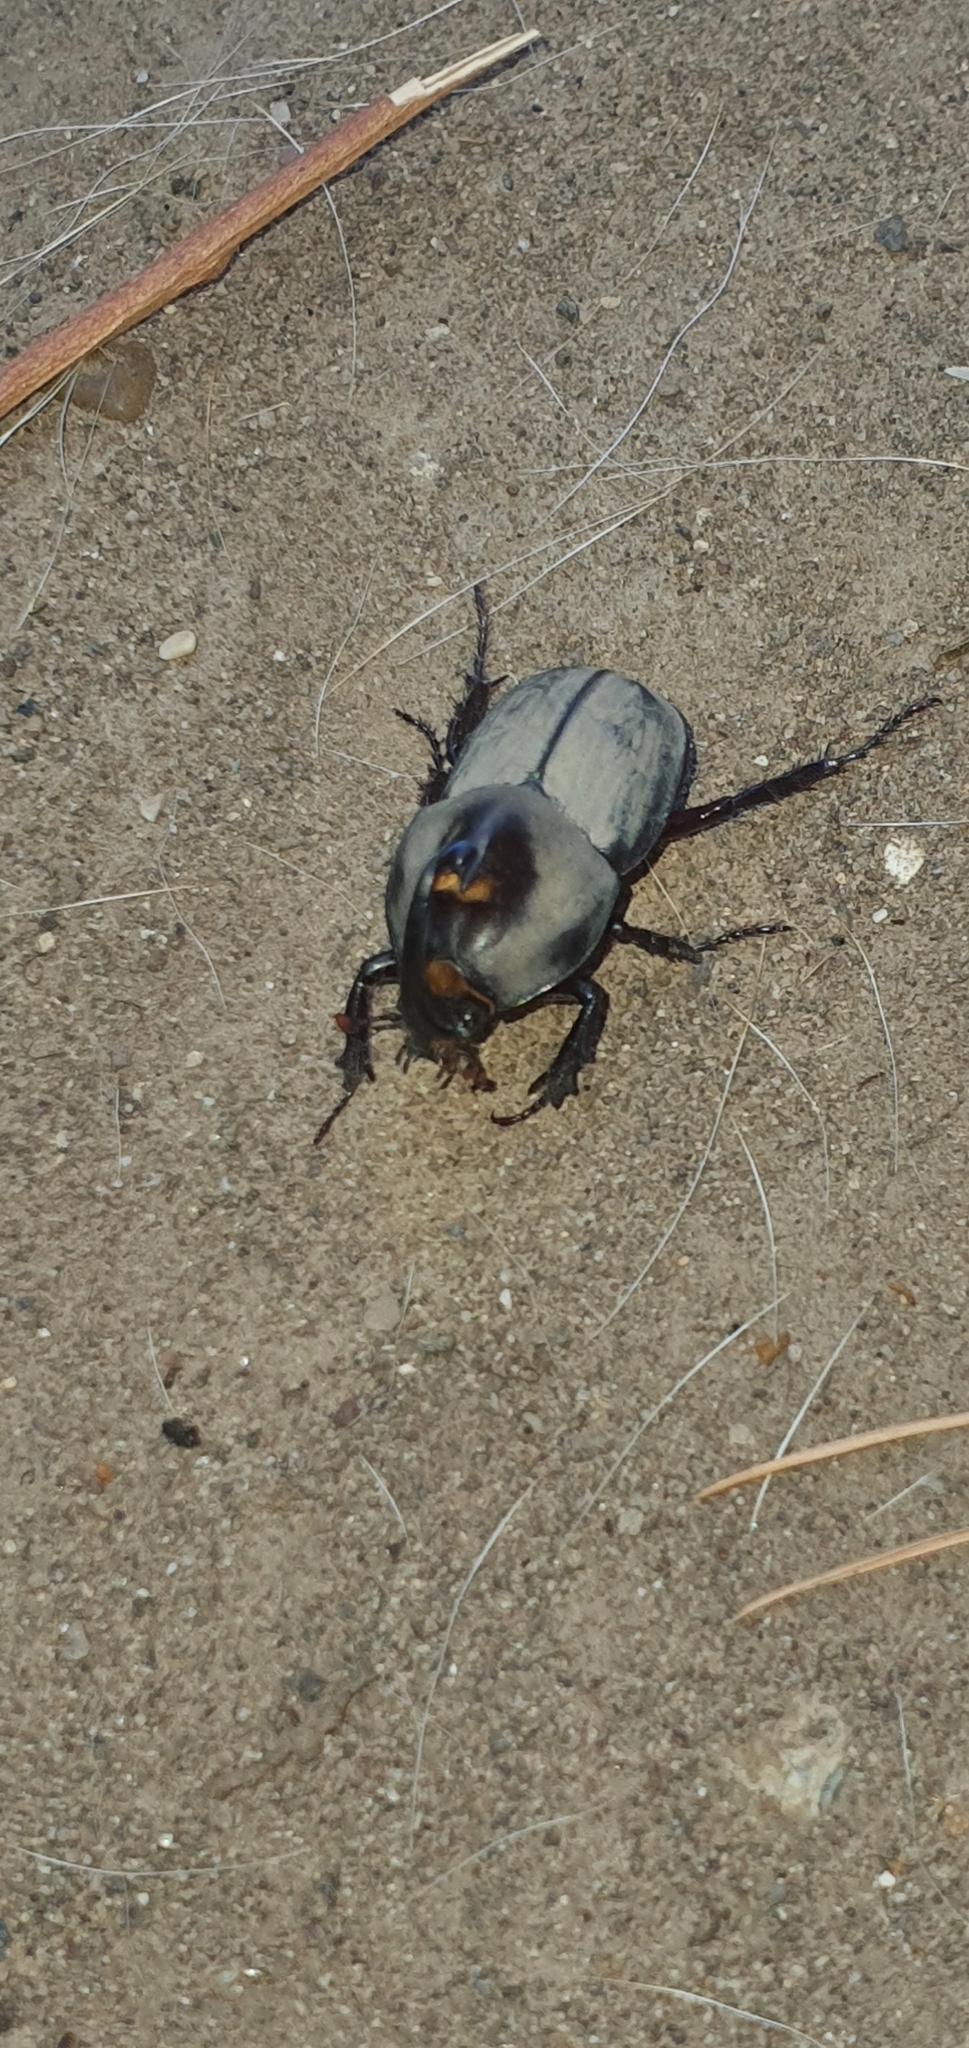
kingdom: Animalia
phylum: Arthropoda
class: Insecta
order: Coleoptera
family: Scarabaeidae
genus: Diloboderus
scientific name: Diloboderus abderus
